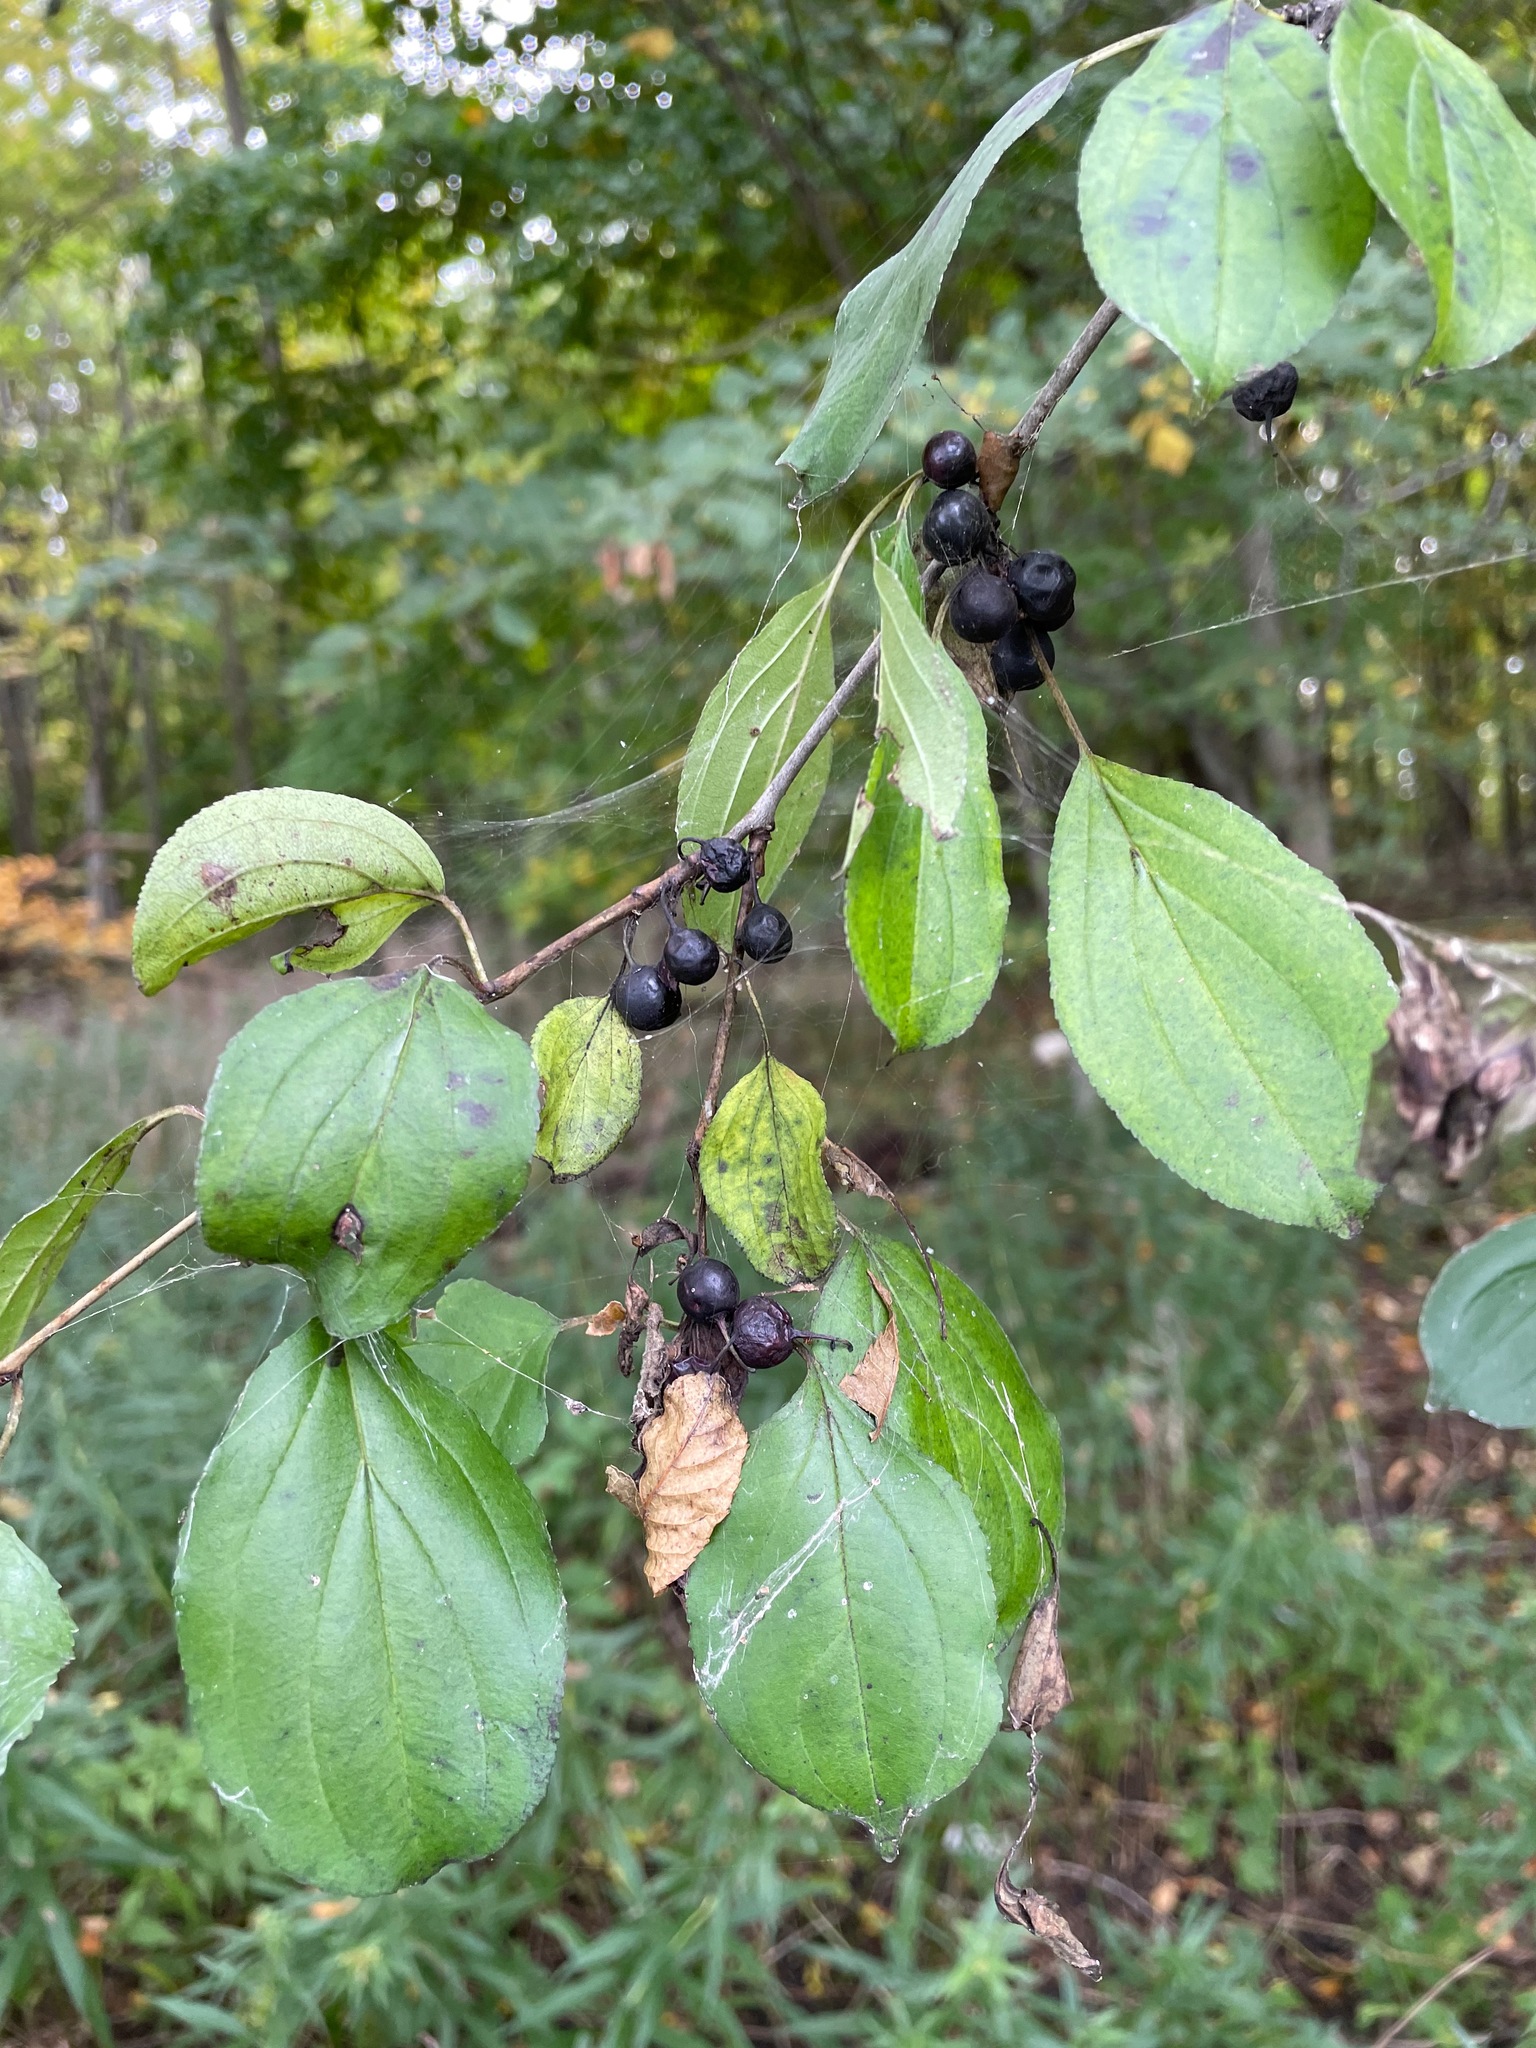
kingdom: Plantae
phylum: Tracheophyta
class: Magnoliopsida
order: Rosales
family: Rhamnaceae
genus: Rhamnus
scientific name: Rhamnus cathartica
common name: Common buckthorn
